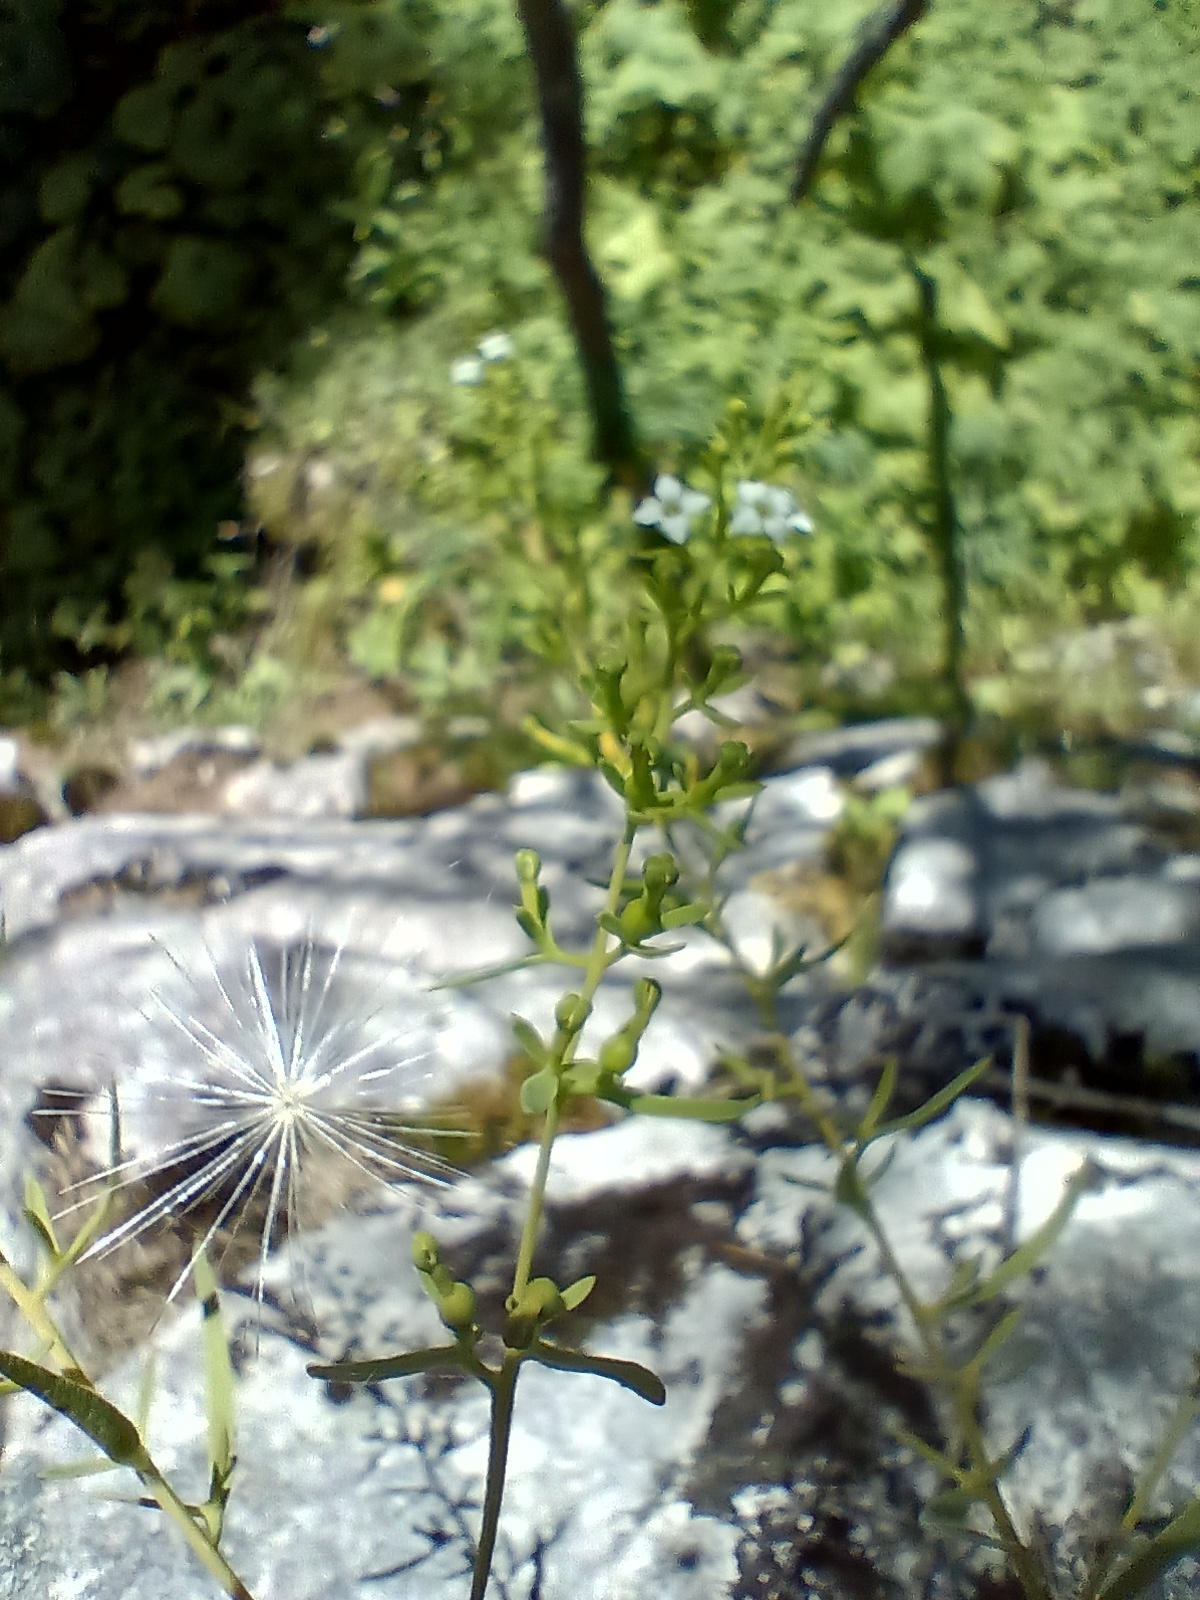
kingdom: Plantae
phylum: Tracheophyta
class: Magnoliopsida
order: Santalales
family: Thesiaceae
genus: Thesium
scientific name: Thesium alpinum
